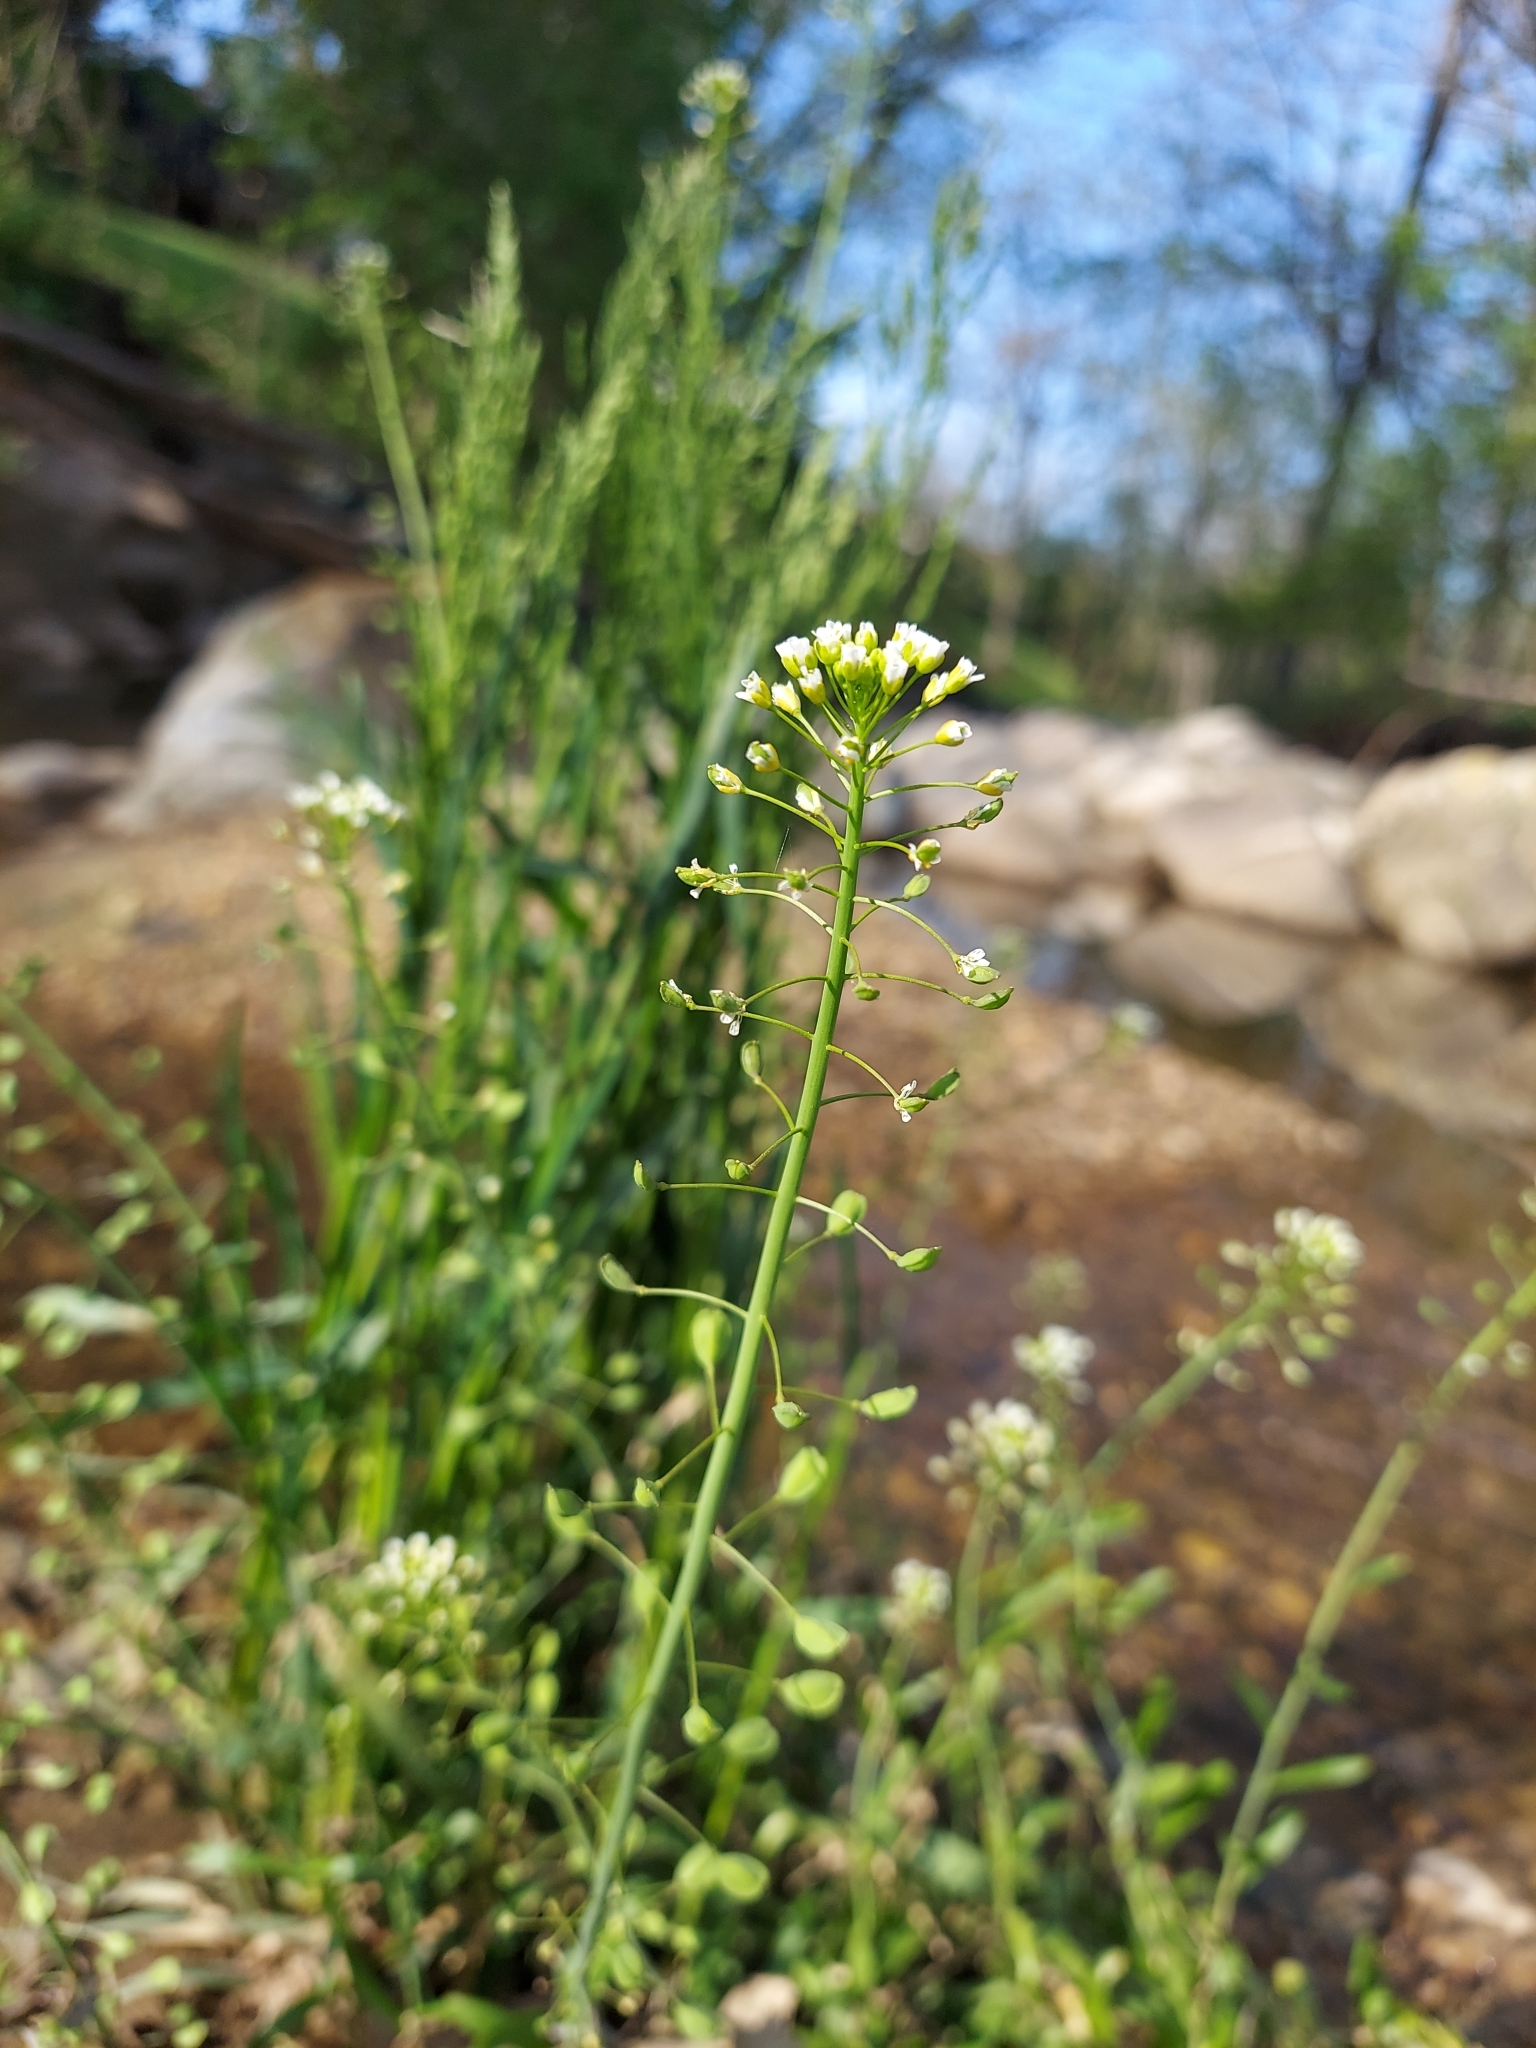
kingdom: Plantae
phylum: Tracheophyta
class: Magnoliopsida
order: Brassicales
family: Brassicaceae
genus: Mummenhoffia
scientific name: Mummenhoffia alliacea
